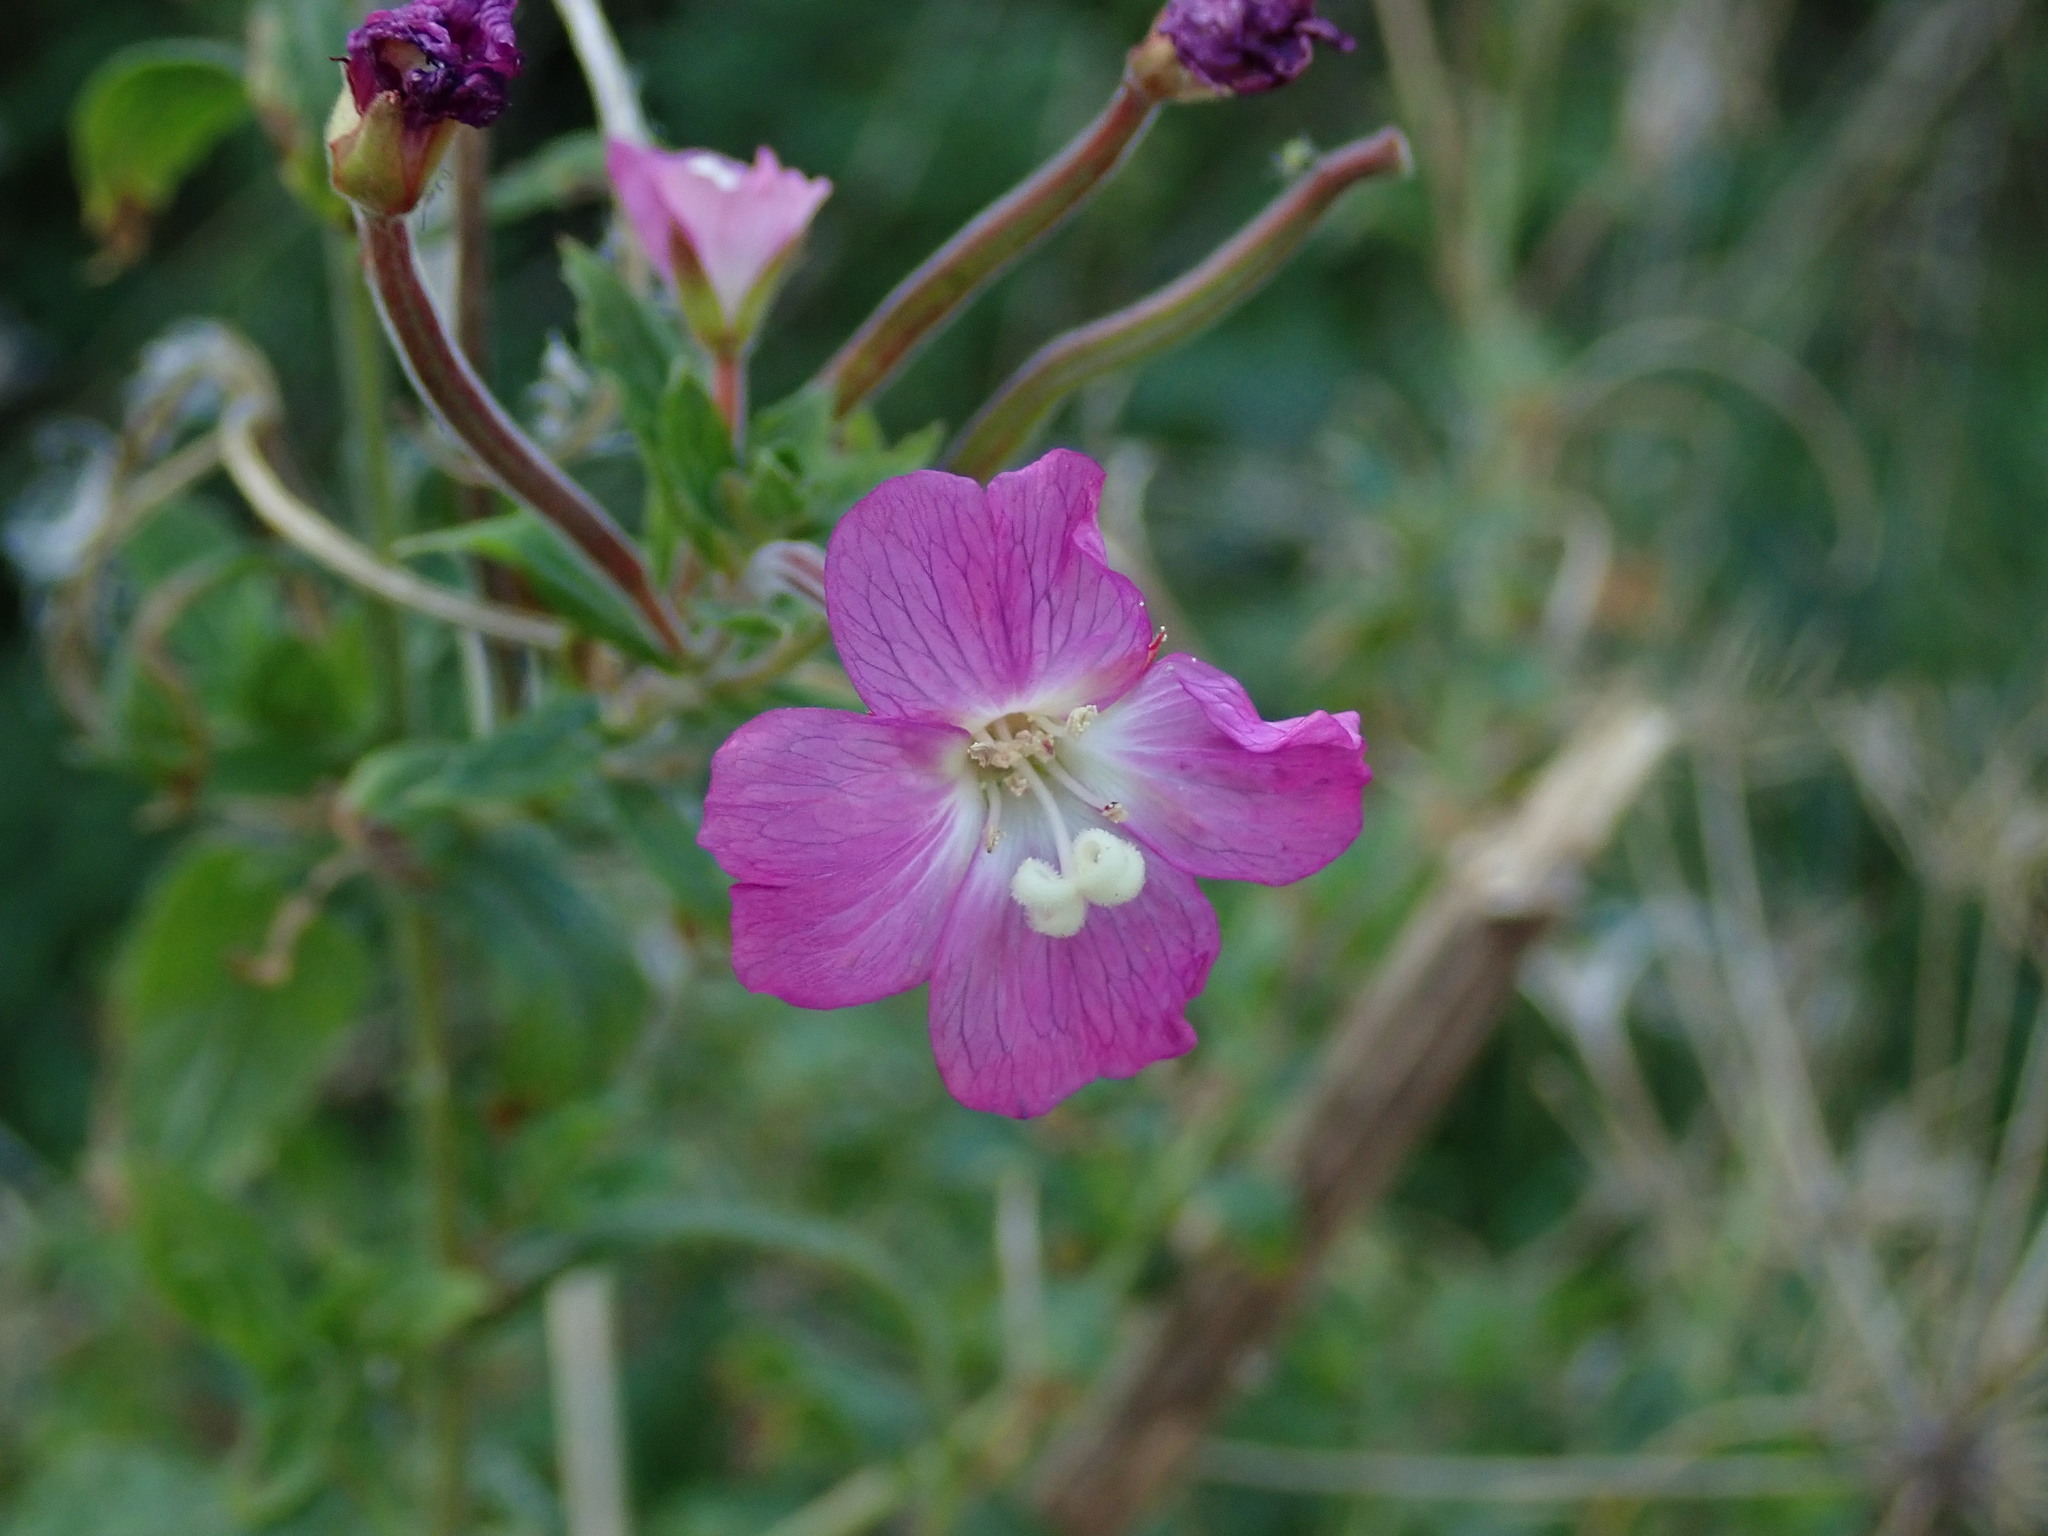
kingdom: Plantae
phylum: Tracheophyta
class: Magnoliopsida
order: Myrtales
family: Onagraceae
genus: Epilobium
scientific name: Epilobium hirsutum
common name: Great willowherb
